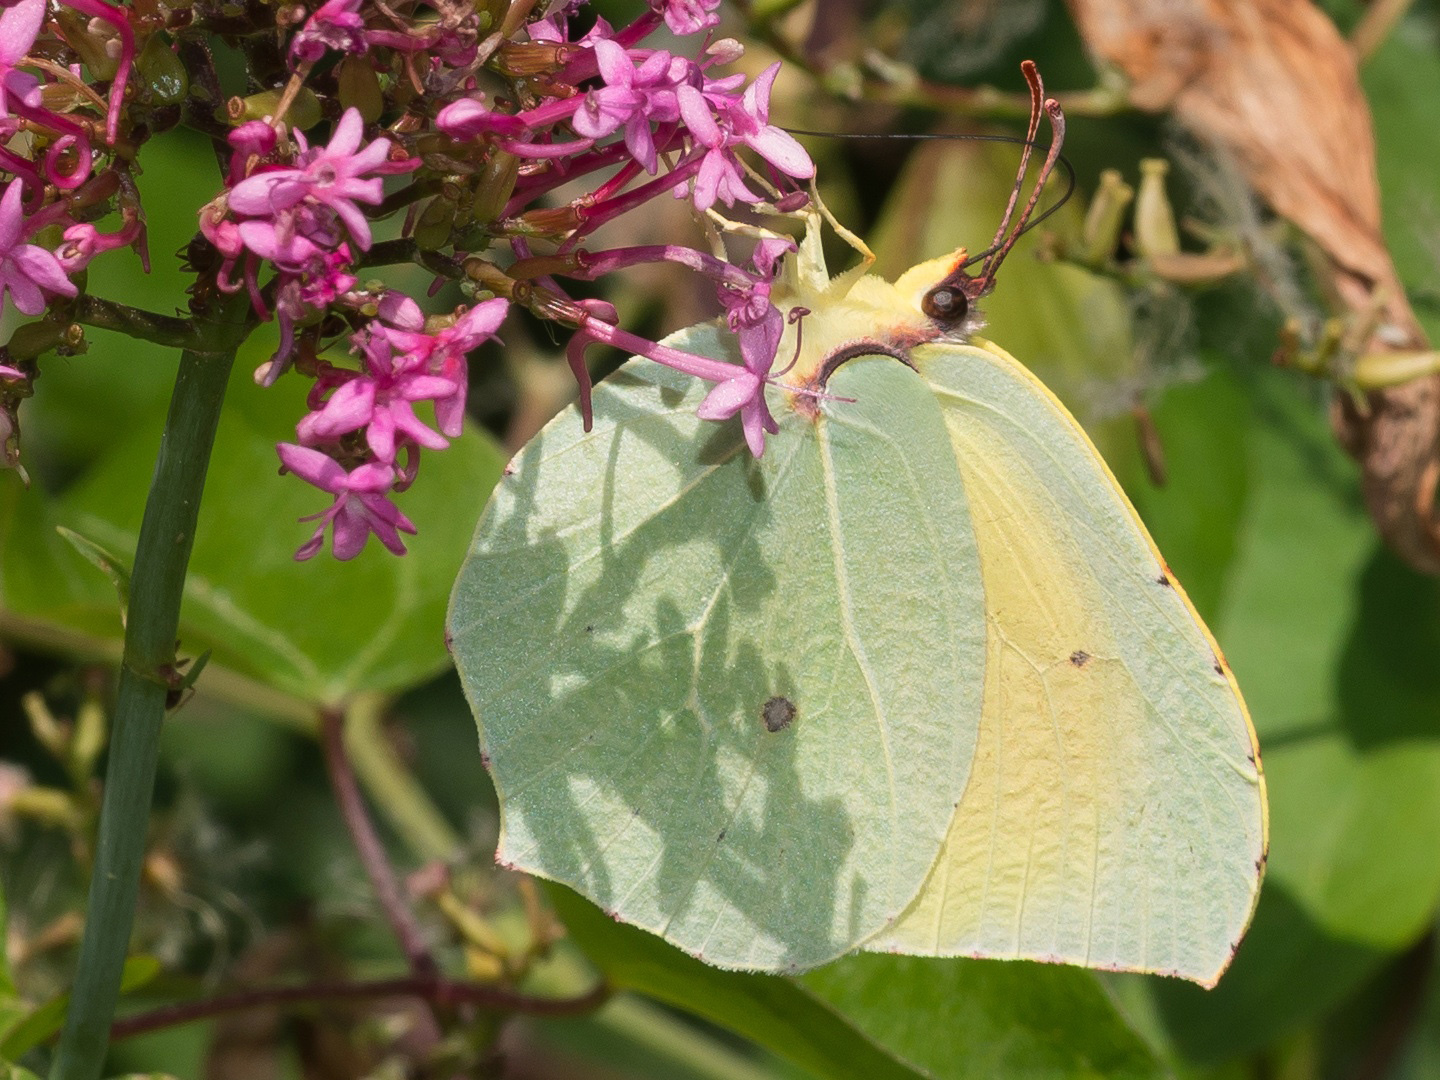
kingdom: Animalia
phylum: Arthropoda
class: Insecta
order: Lepidoptera
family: Pieridae
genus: Gonepteryx
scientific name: Gonepteryx cleopatra
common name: Cleopatra
